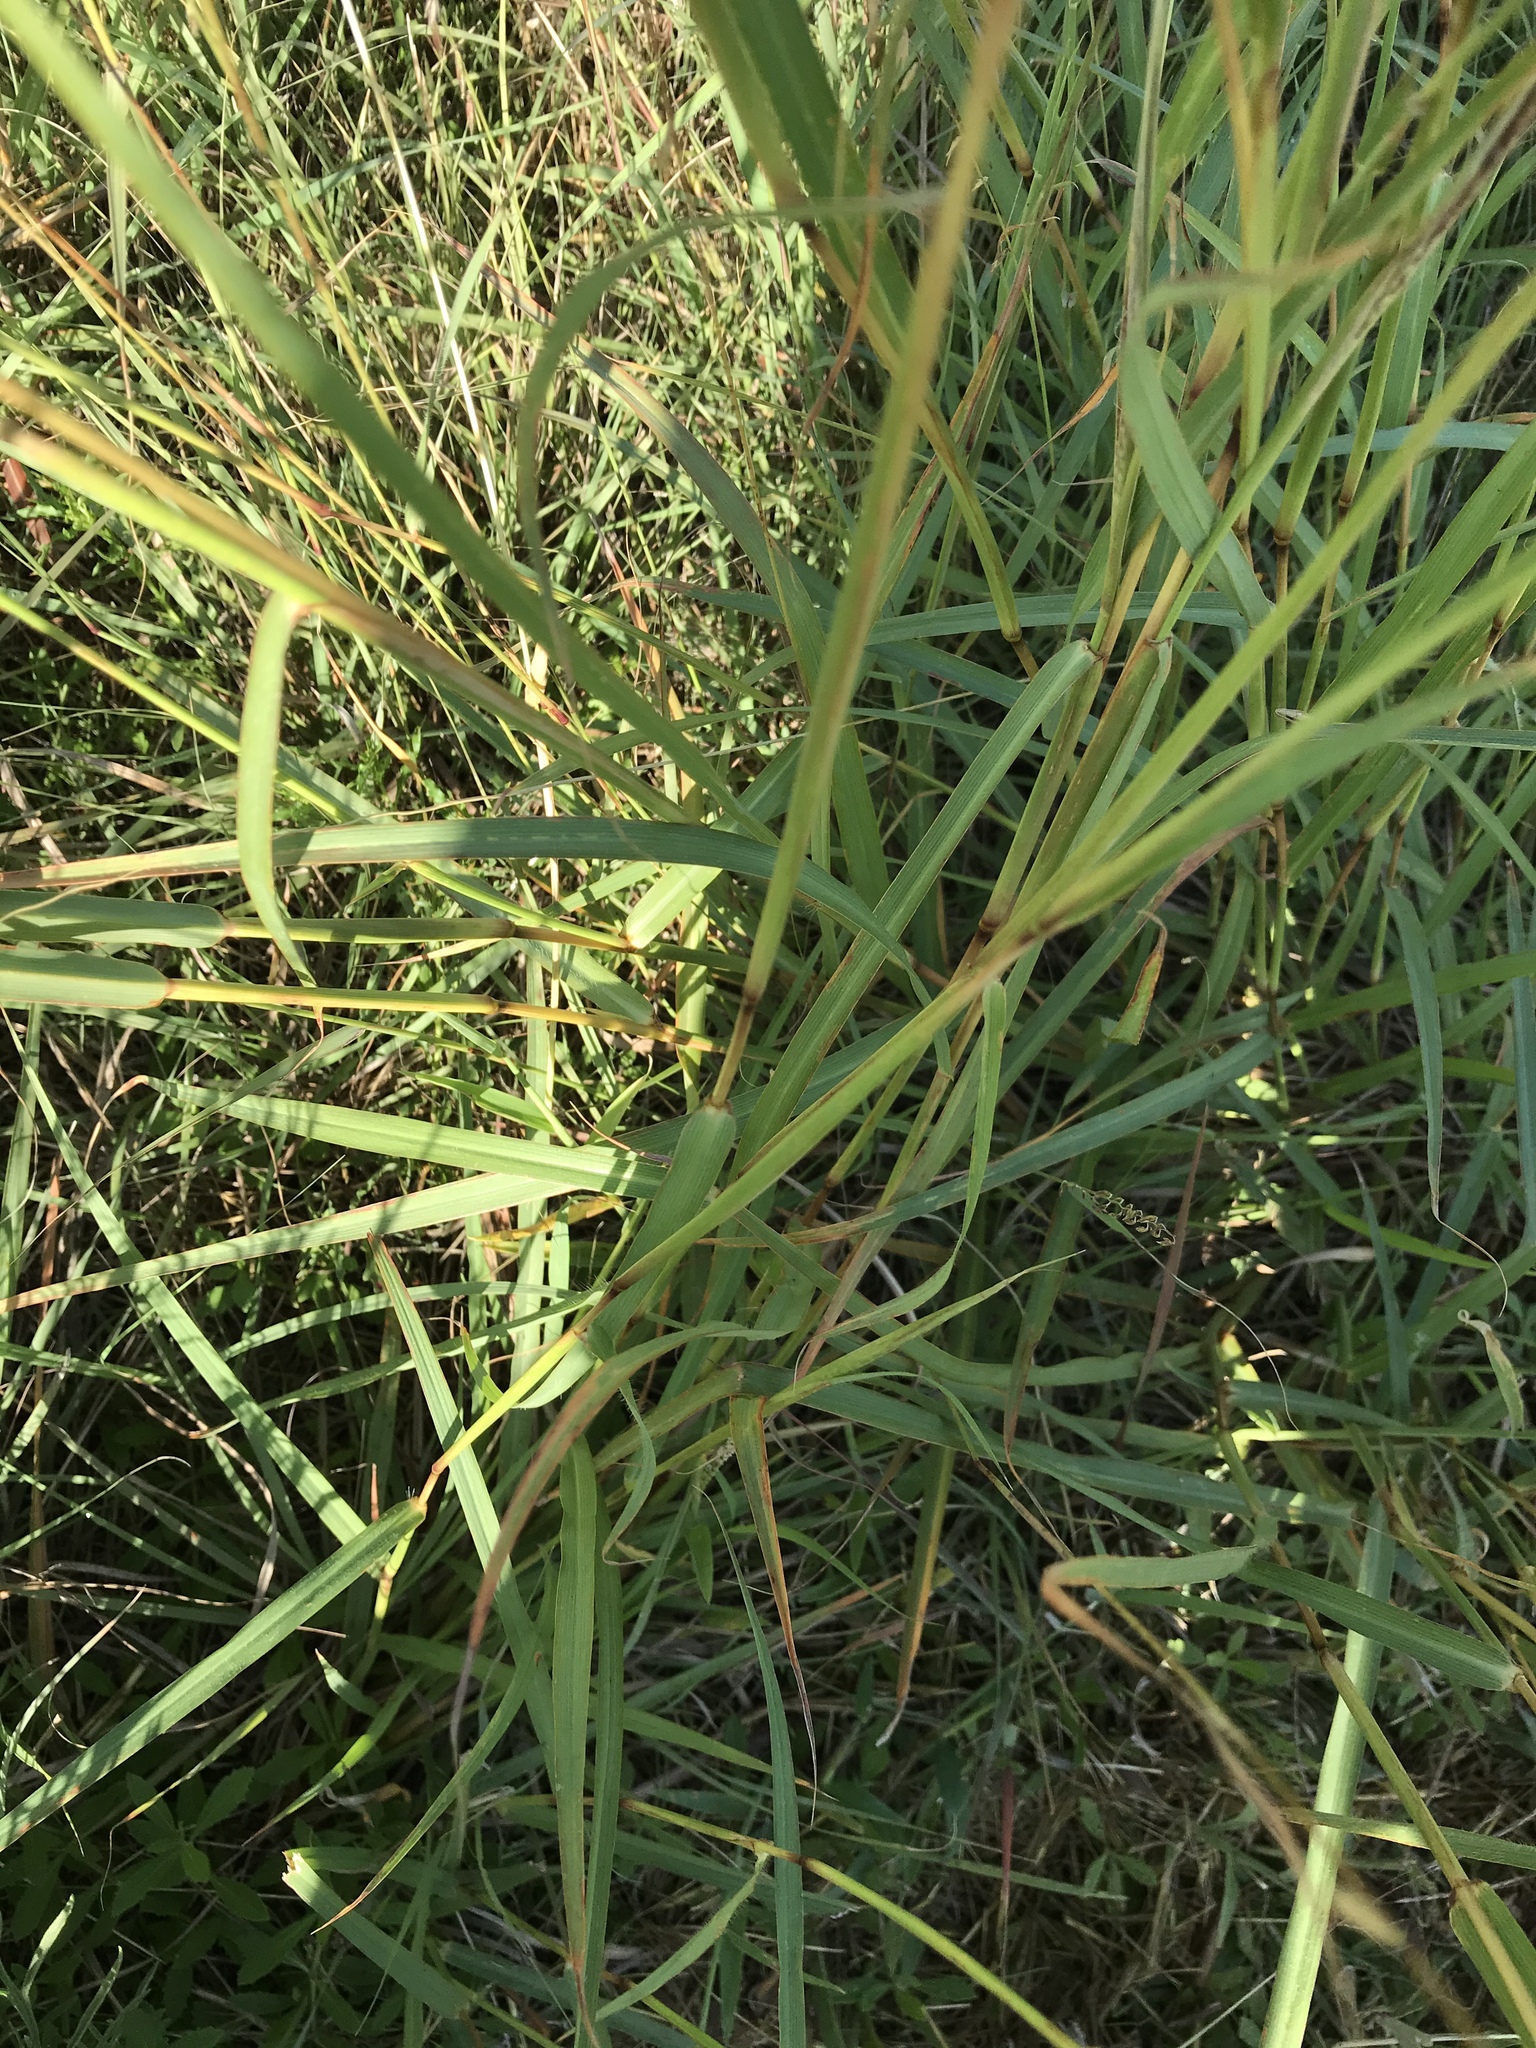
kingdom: Plantae
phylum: Tracheophyta
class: Liliopsida
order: Poales
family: Poaceae
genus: Bothriochloa
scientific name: Bothriochloa ischaemum
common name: Yellow bluestem
